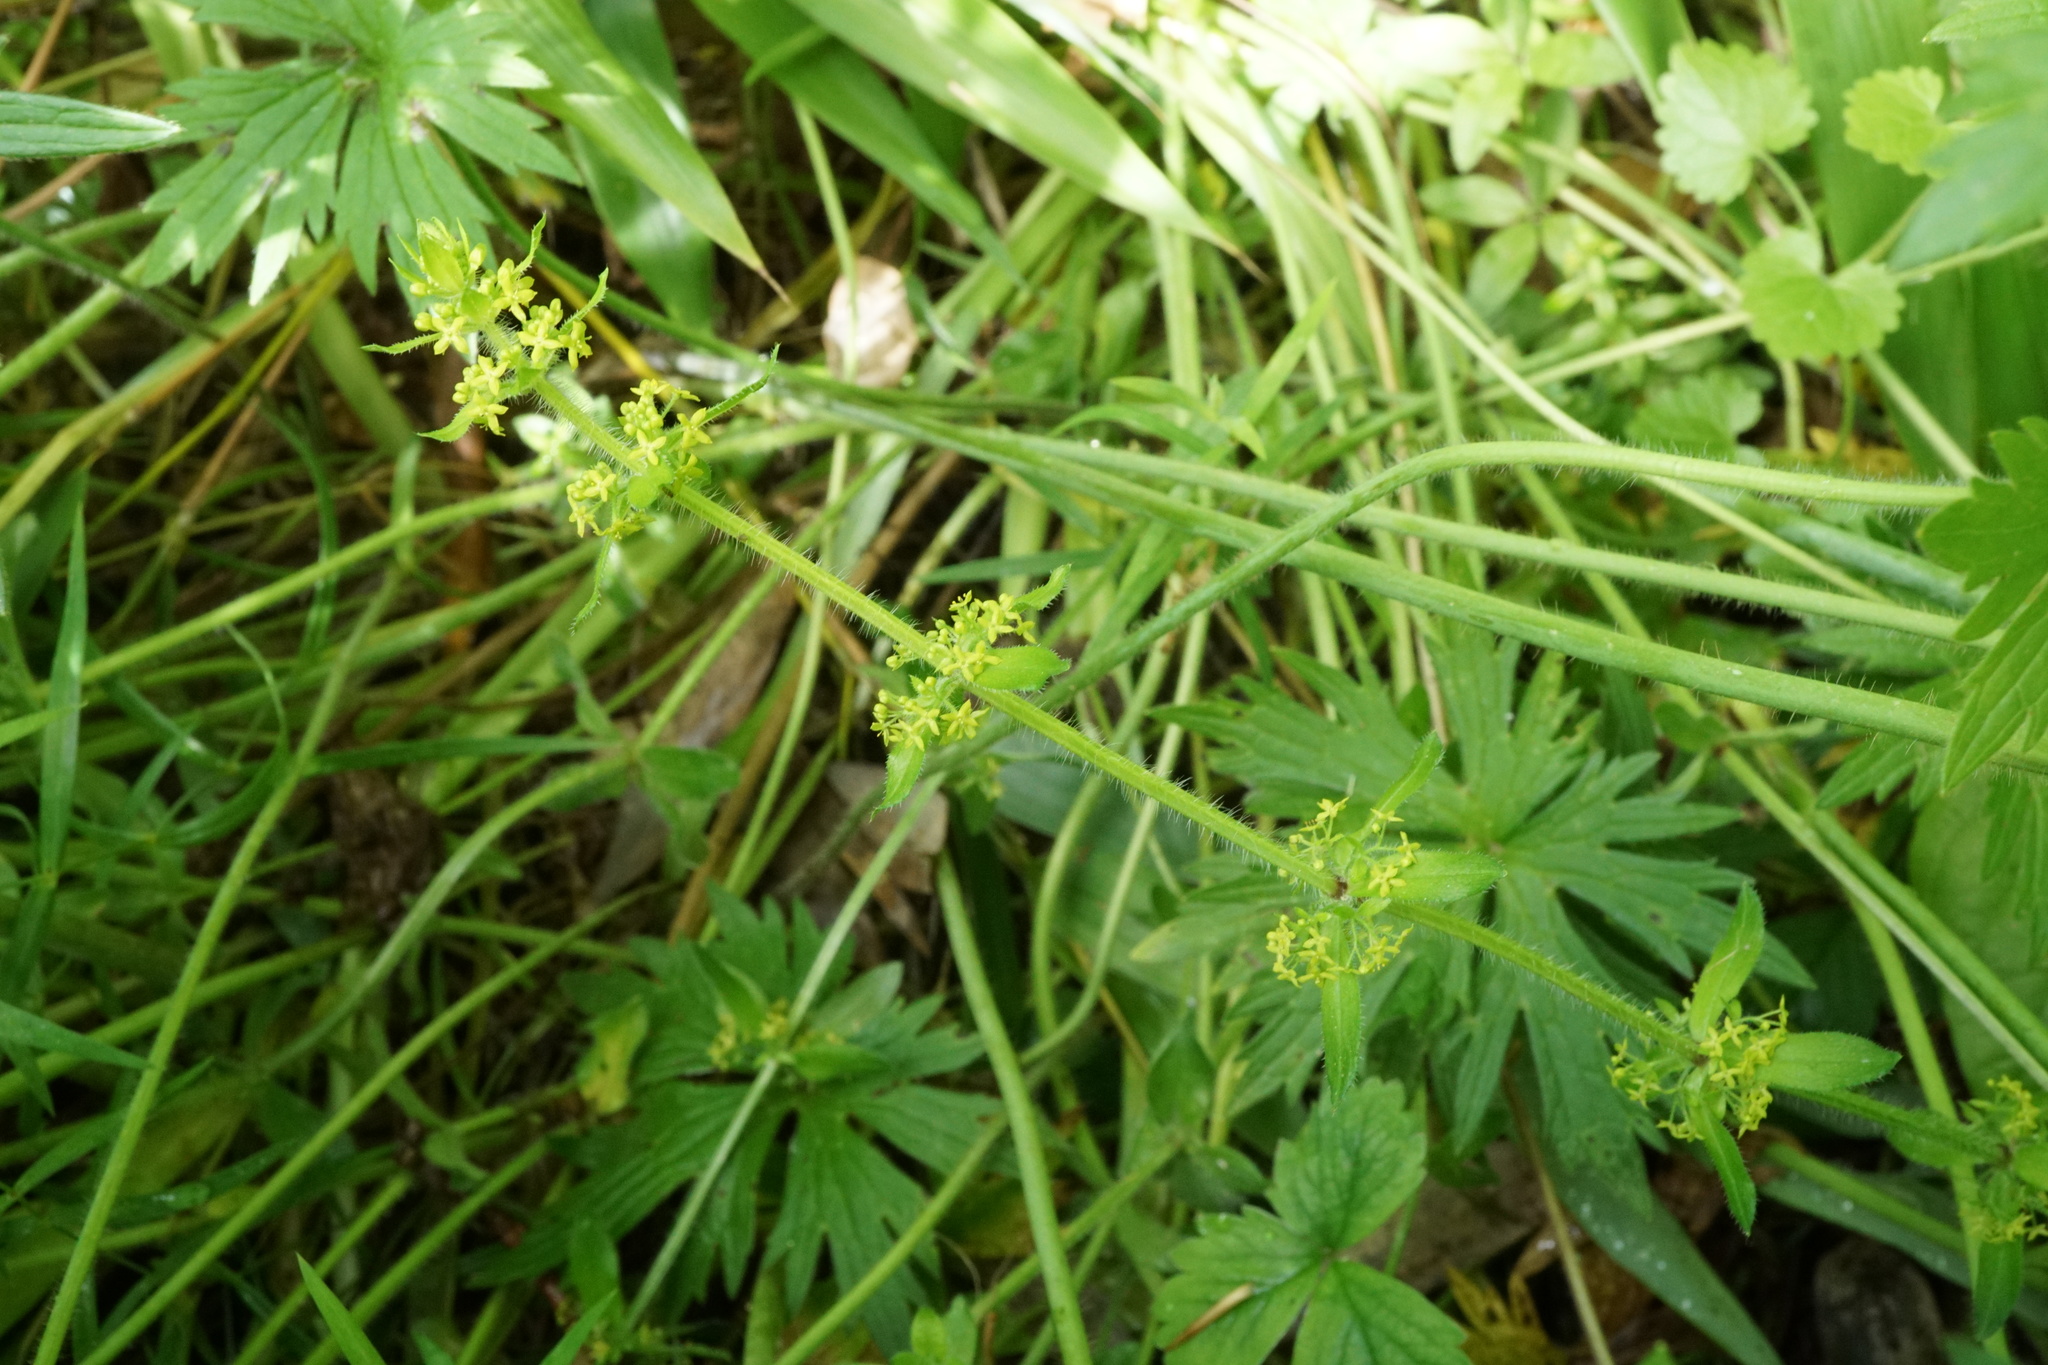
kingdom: Plantae
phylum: Tracheophyta
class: Magnoliopsida
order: Gentianales
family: Rubiaceae
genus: Cruciata
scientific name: Cruciata laevipes
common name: Crosswort
